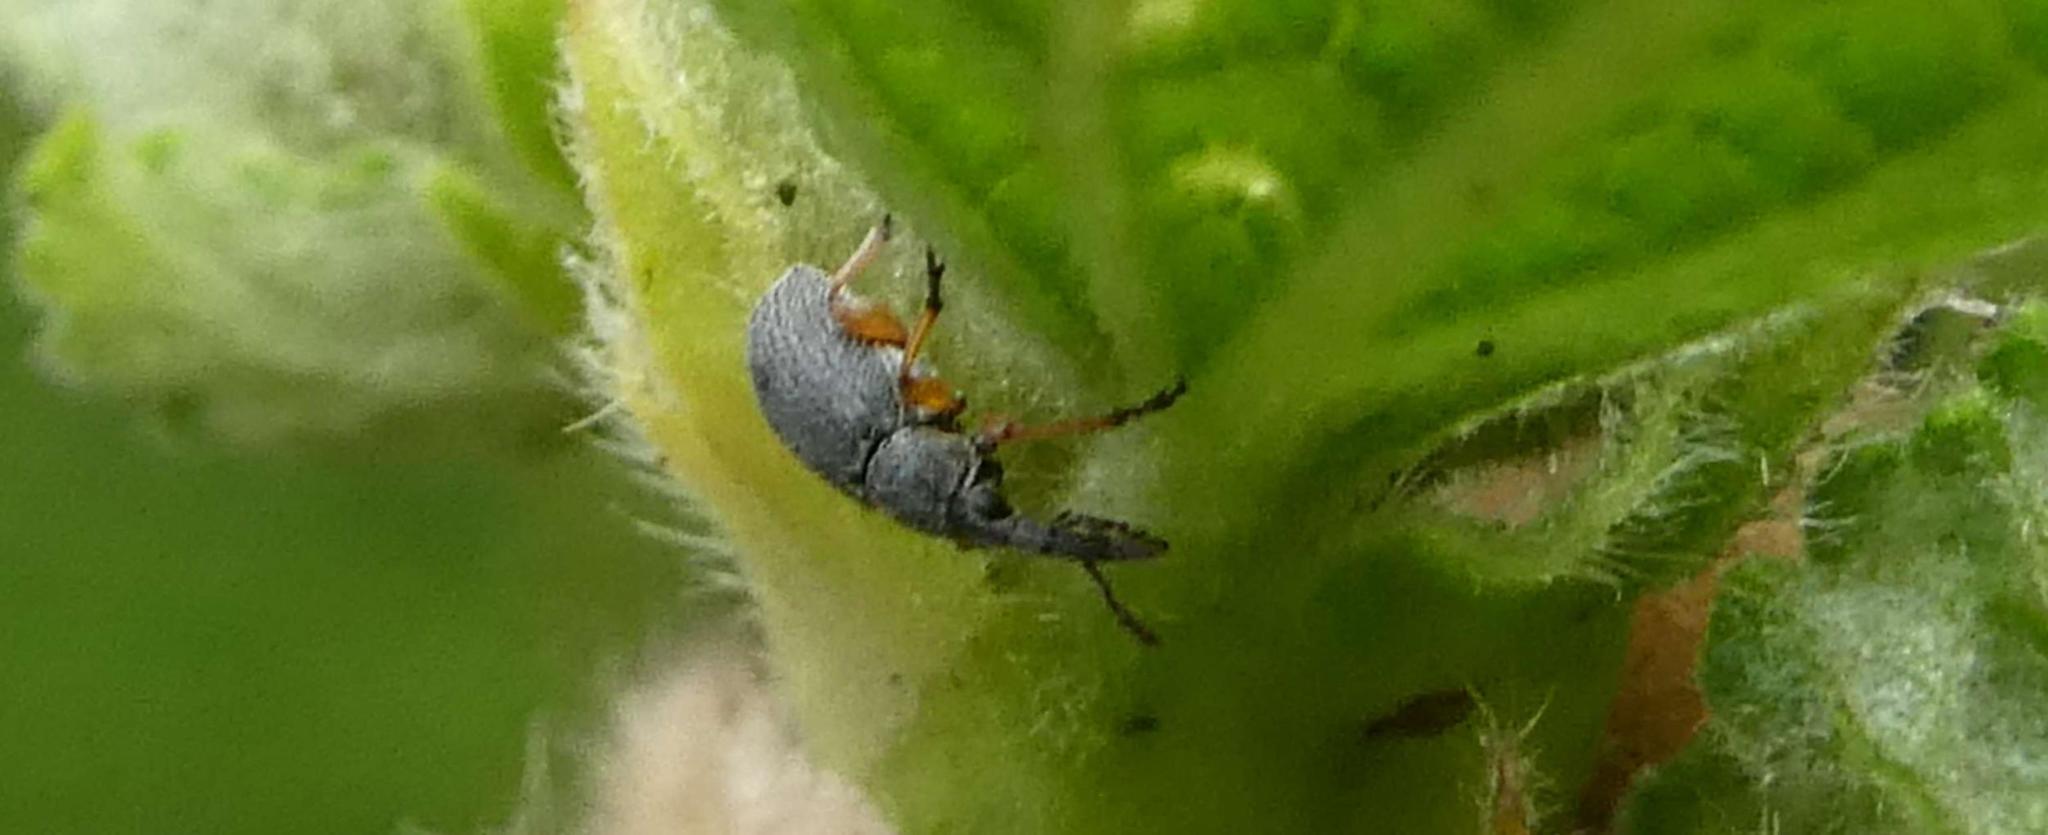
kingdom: Animalia
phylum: Arthropoda
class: Insecta
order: Coleoptera
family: Brentidae
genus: Rhopalapion
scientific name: Rhopalapion longirostre
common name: Hollyhock weevil
